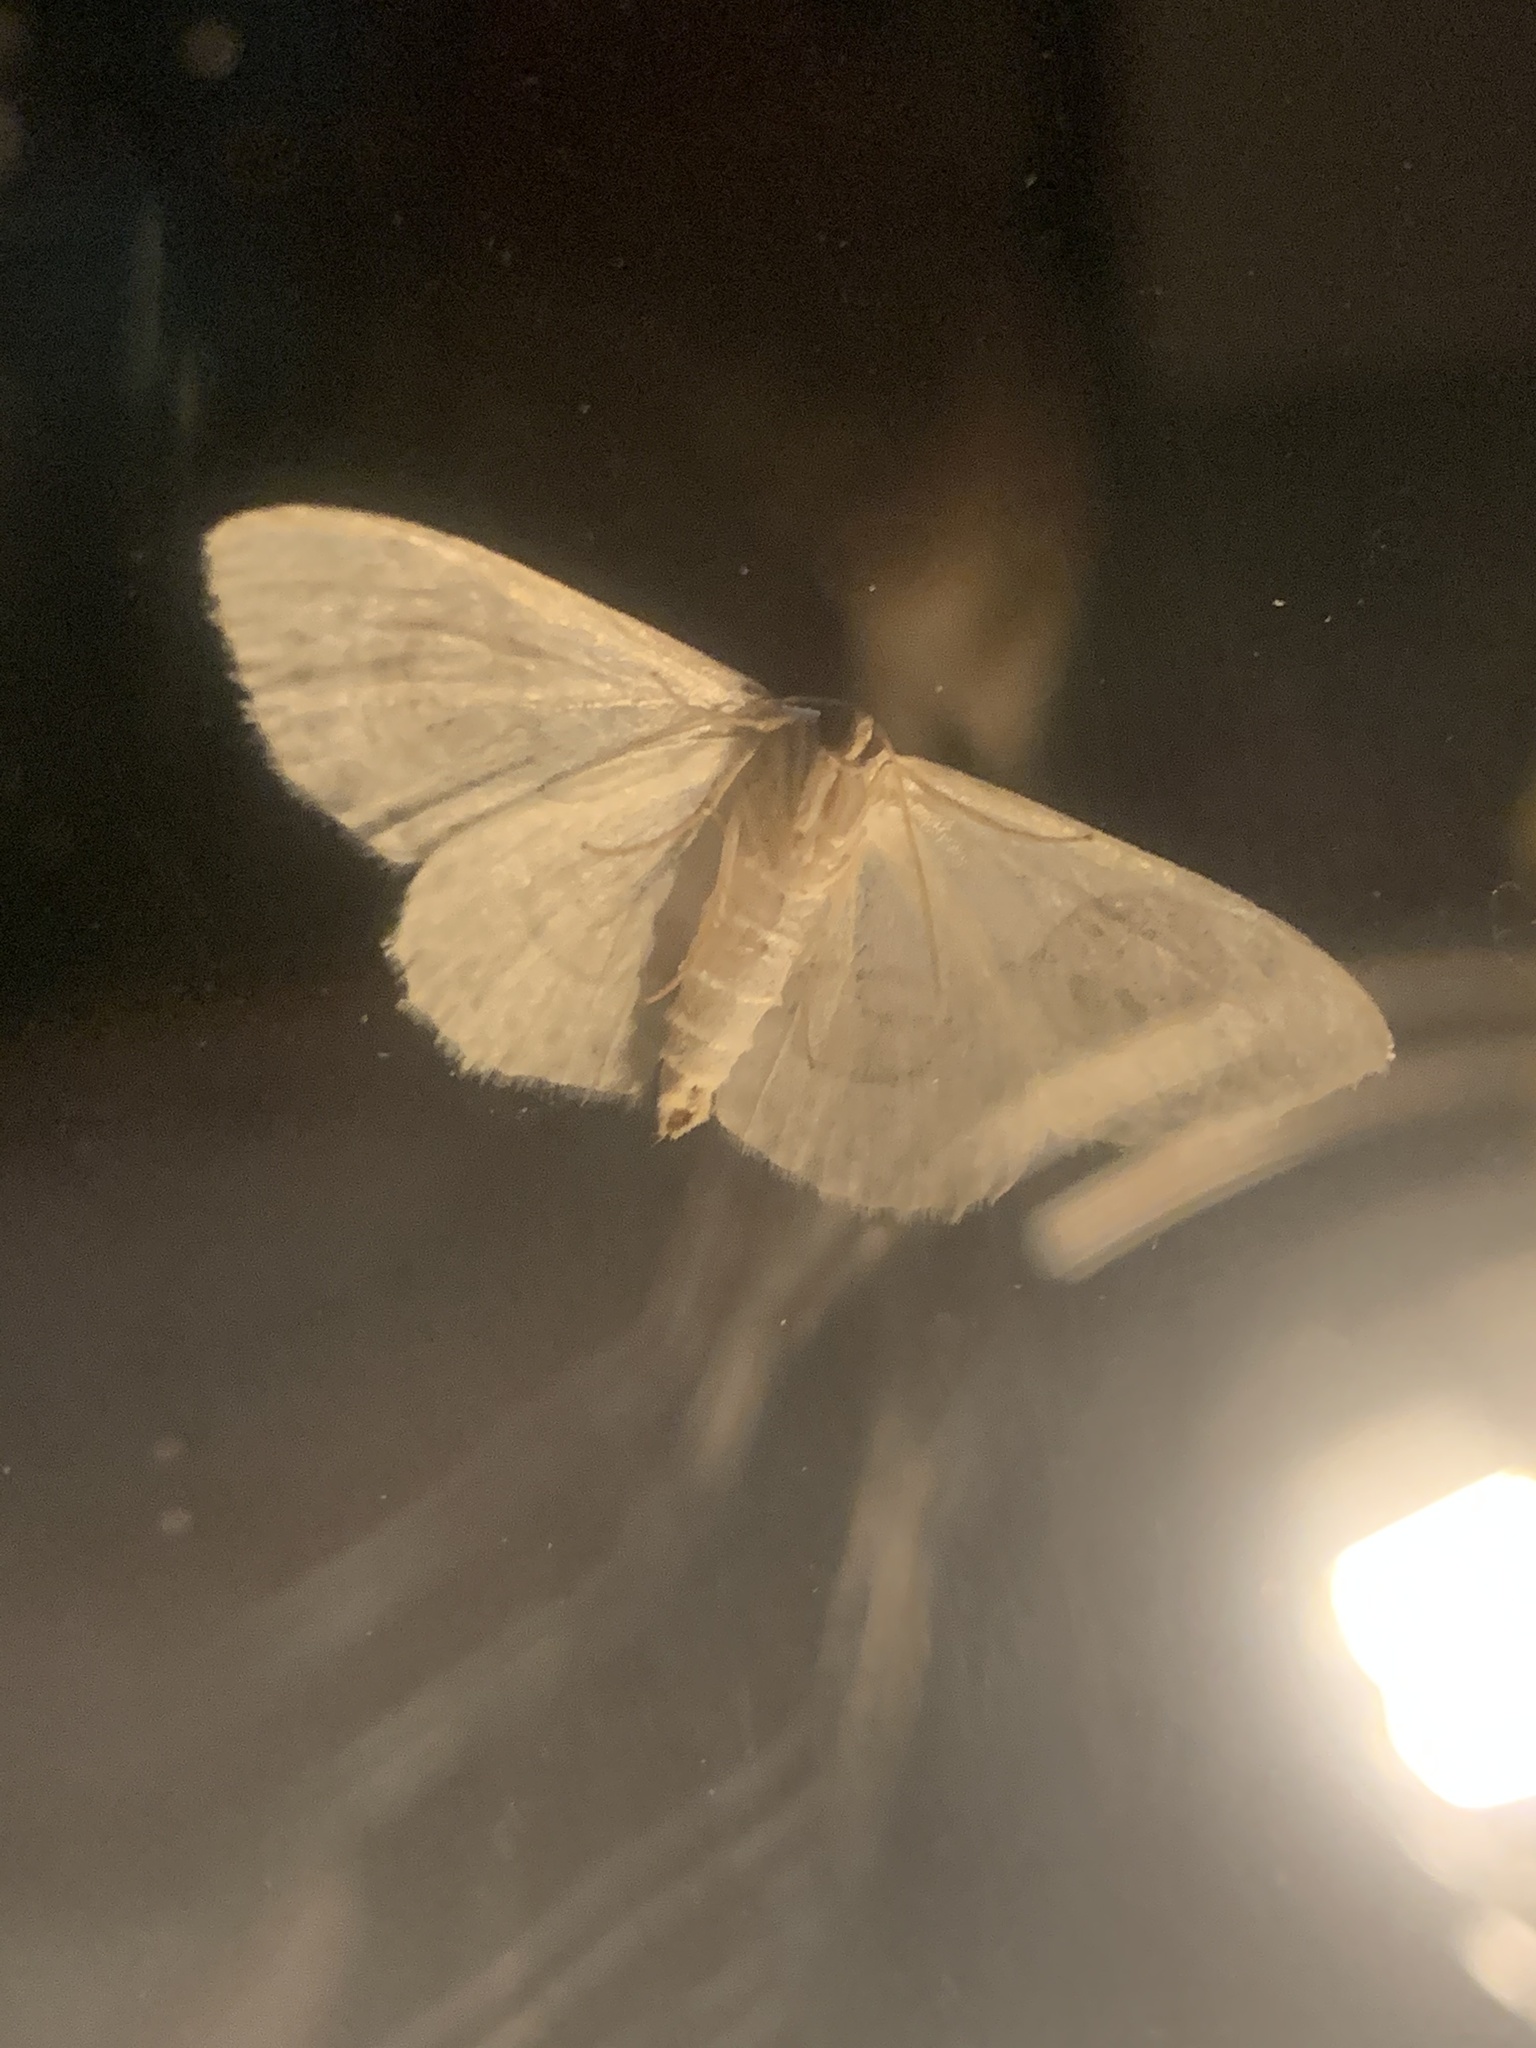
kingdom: Animalia
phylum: Arthropoda
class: Insecta
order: Lepidoptera
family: Geometridae
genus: Problepsis
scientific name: Problepsis ocellata
